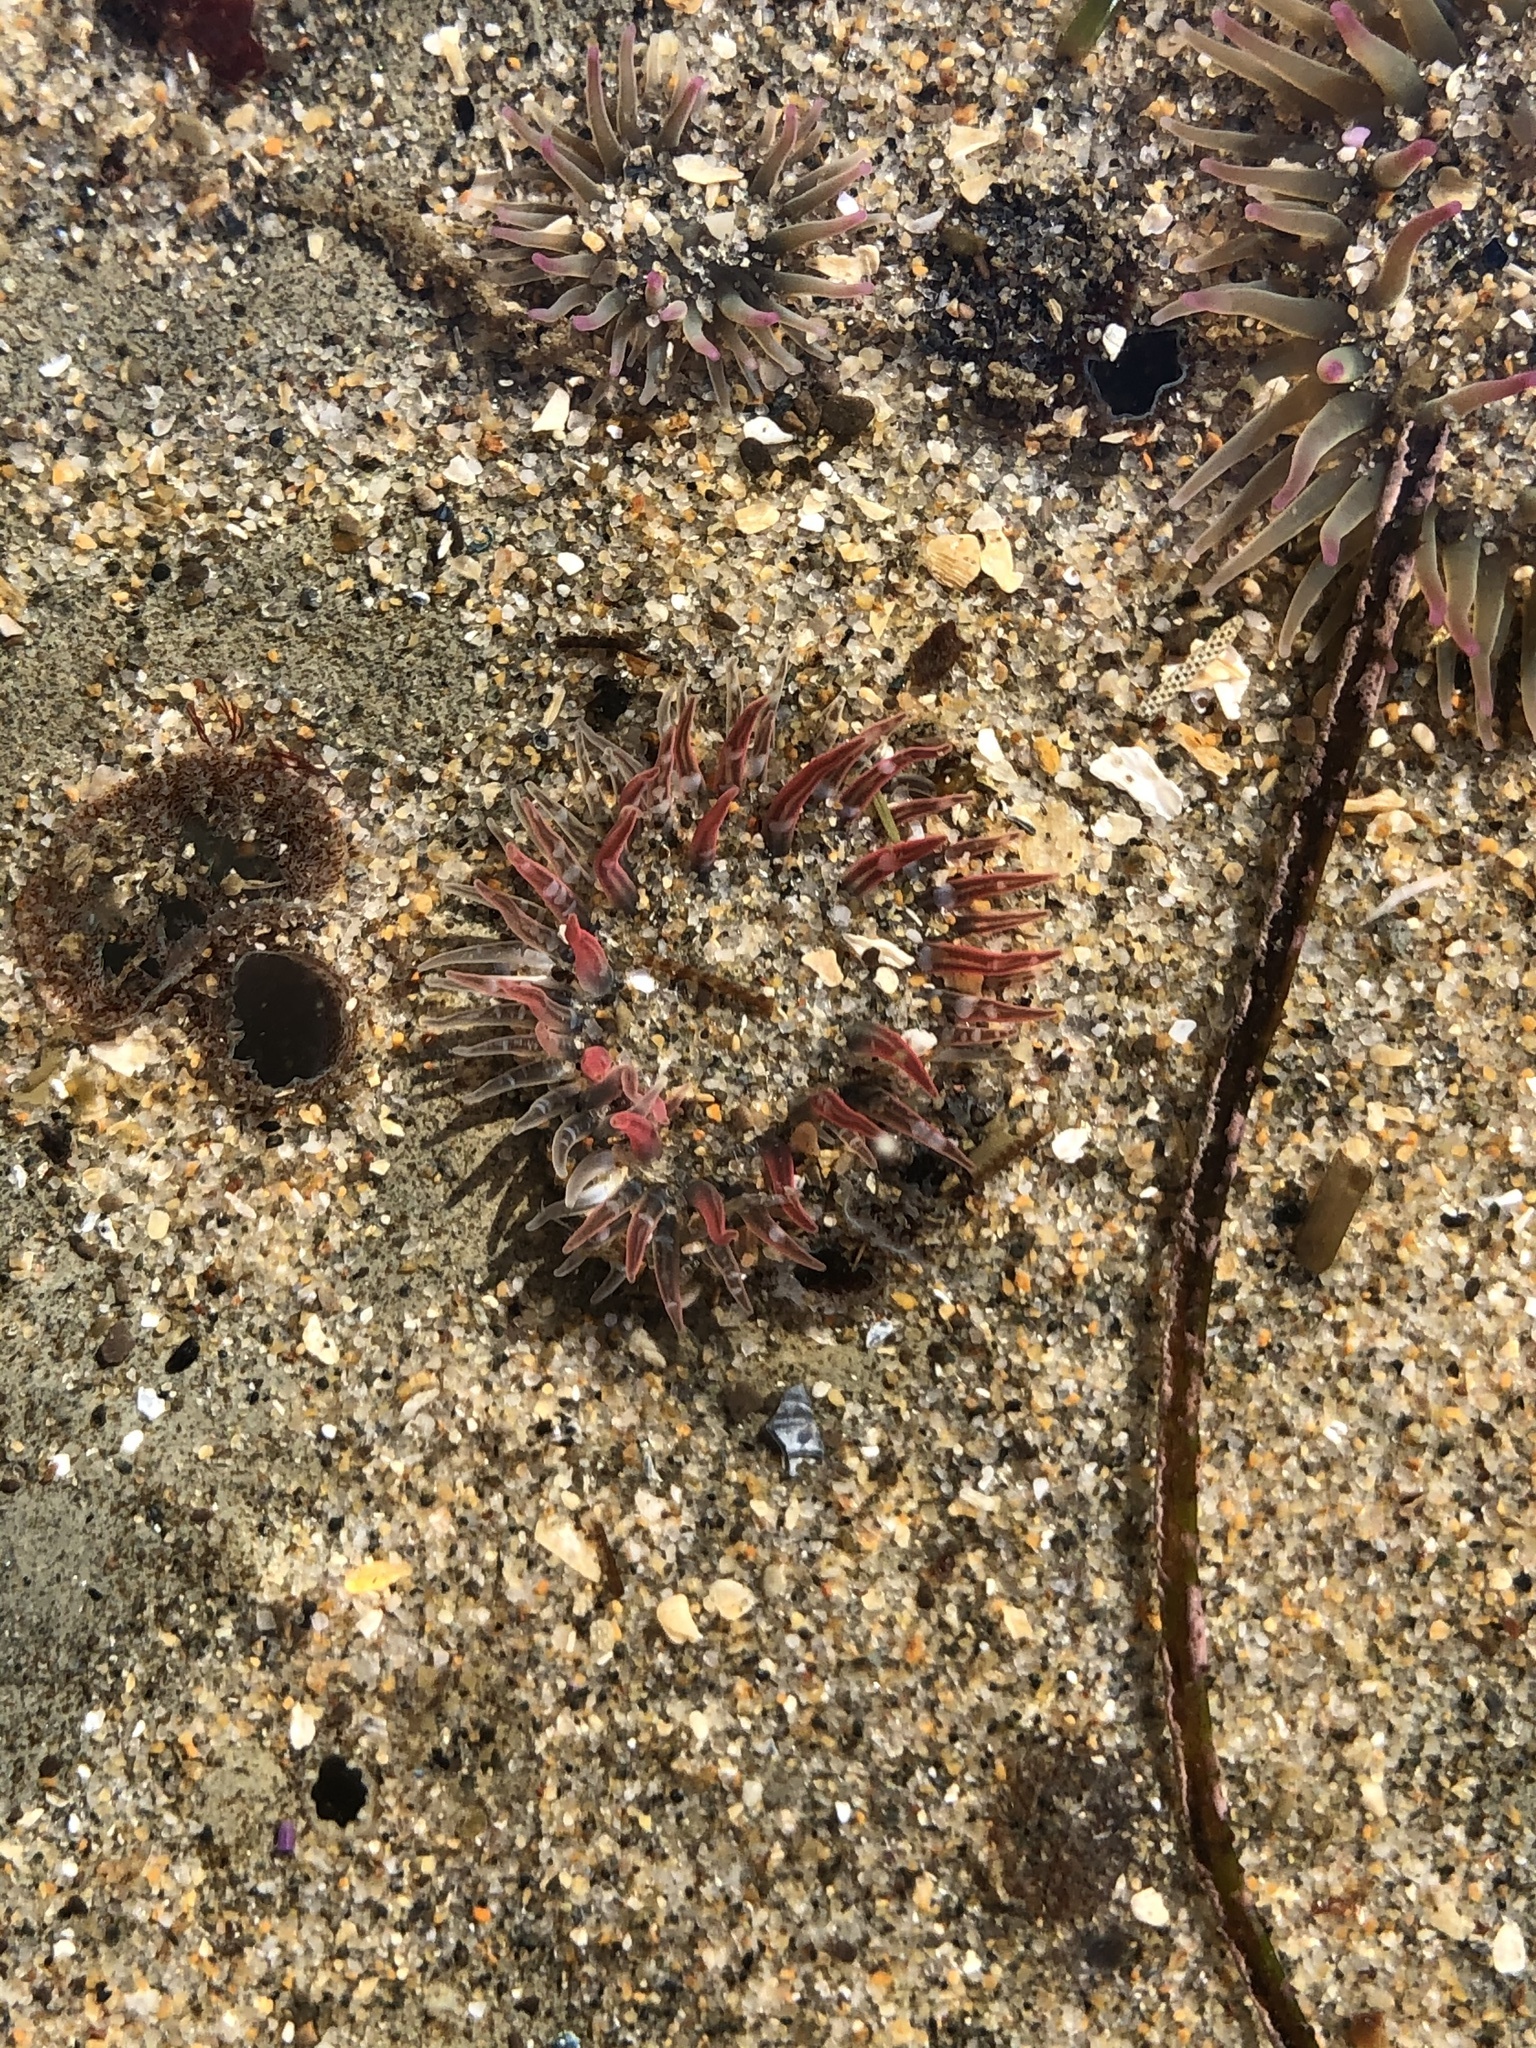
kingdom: Animalia
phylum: Cnidaria
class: Anthozoa
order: Actiniaria
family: Actiniidae
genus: Anthopleura
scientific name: Anthopleura artemisia
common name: Buried sea anemone
